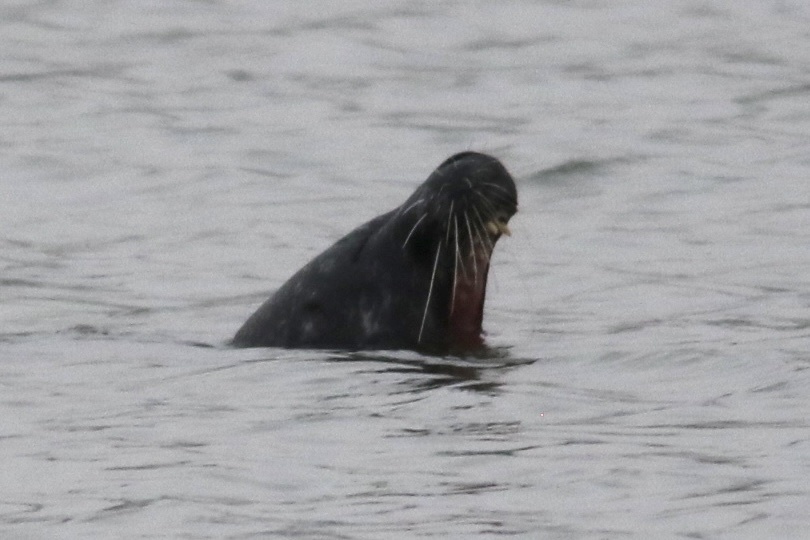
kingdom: Animalia
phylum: Chordata
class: Mammalia
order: Carnivora
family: Phocidae
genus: Phoca
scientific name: Phoca vitulina
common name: Harbor seal
